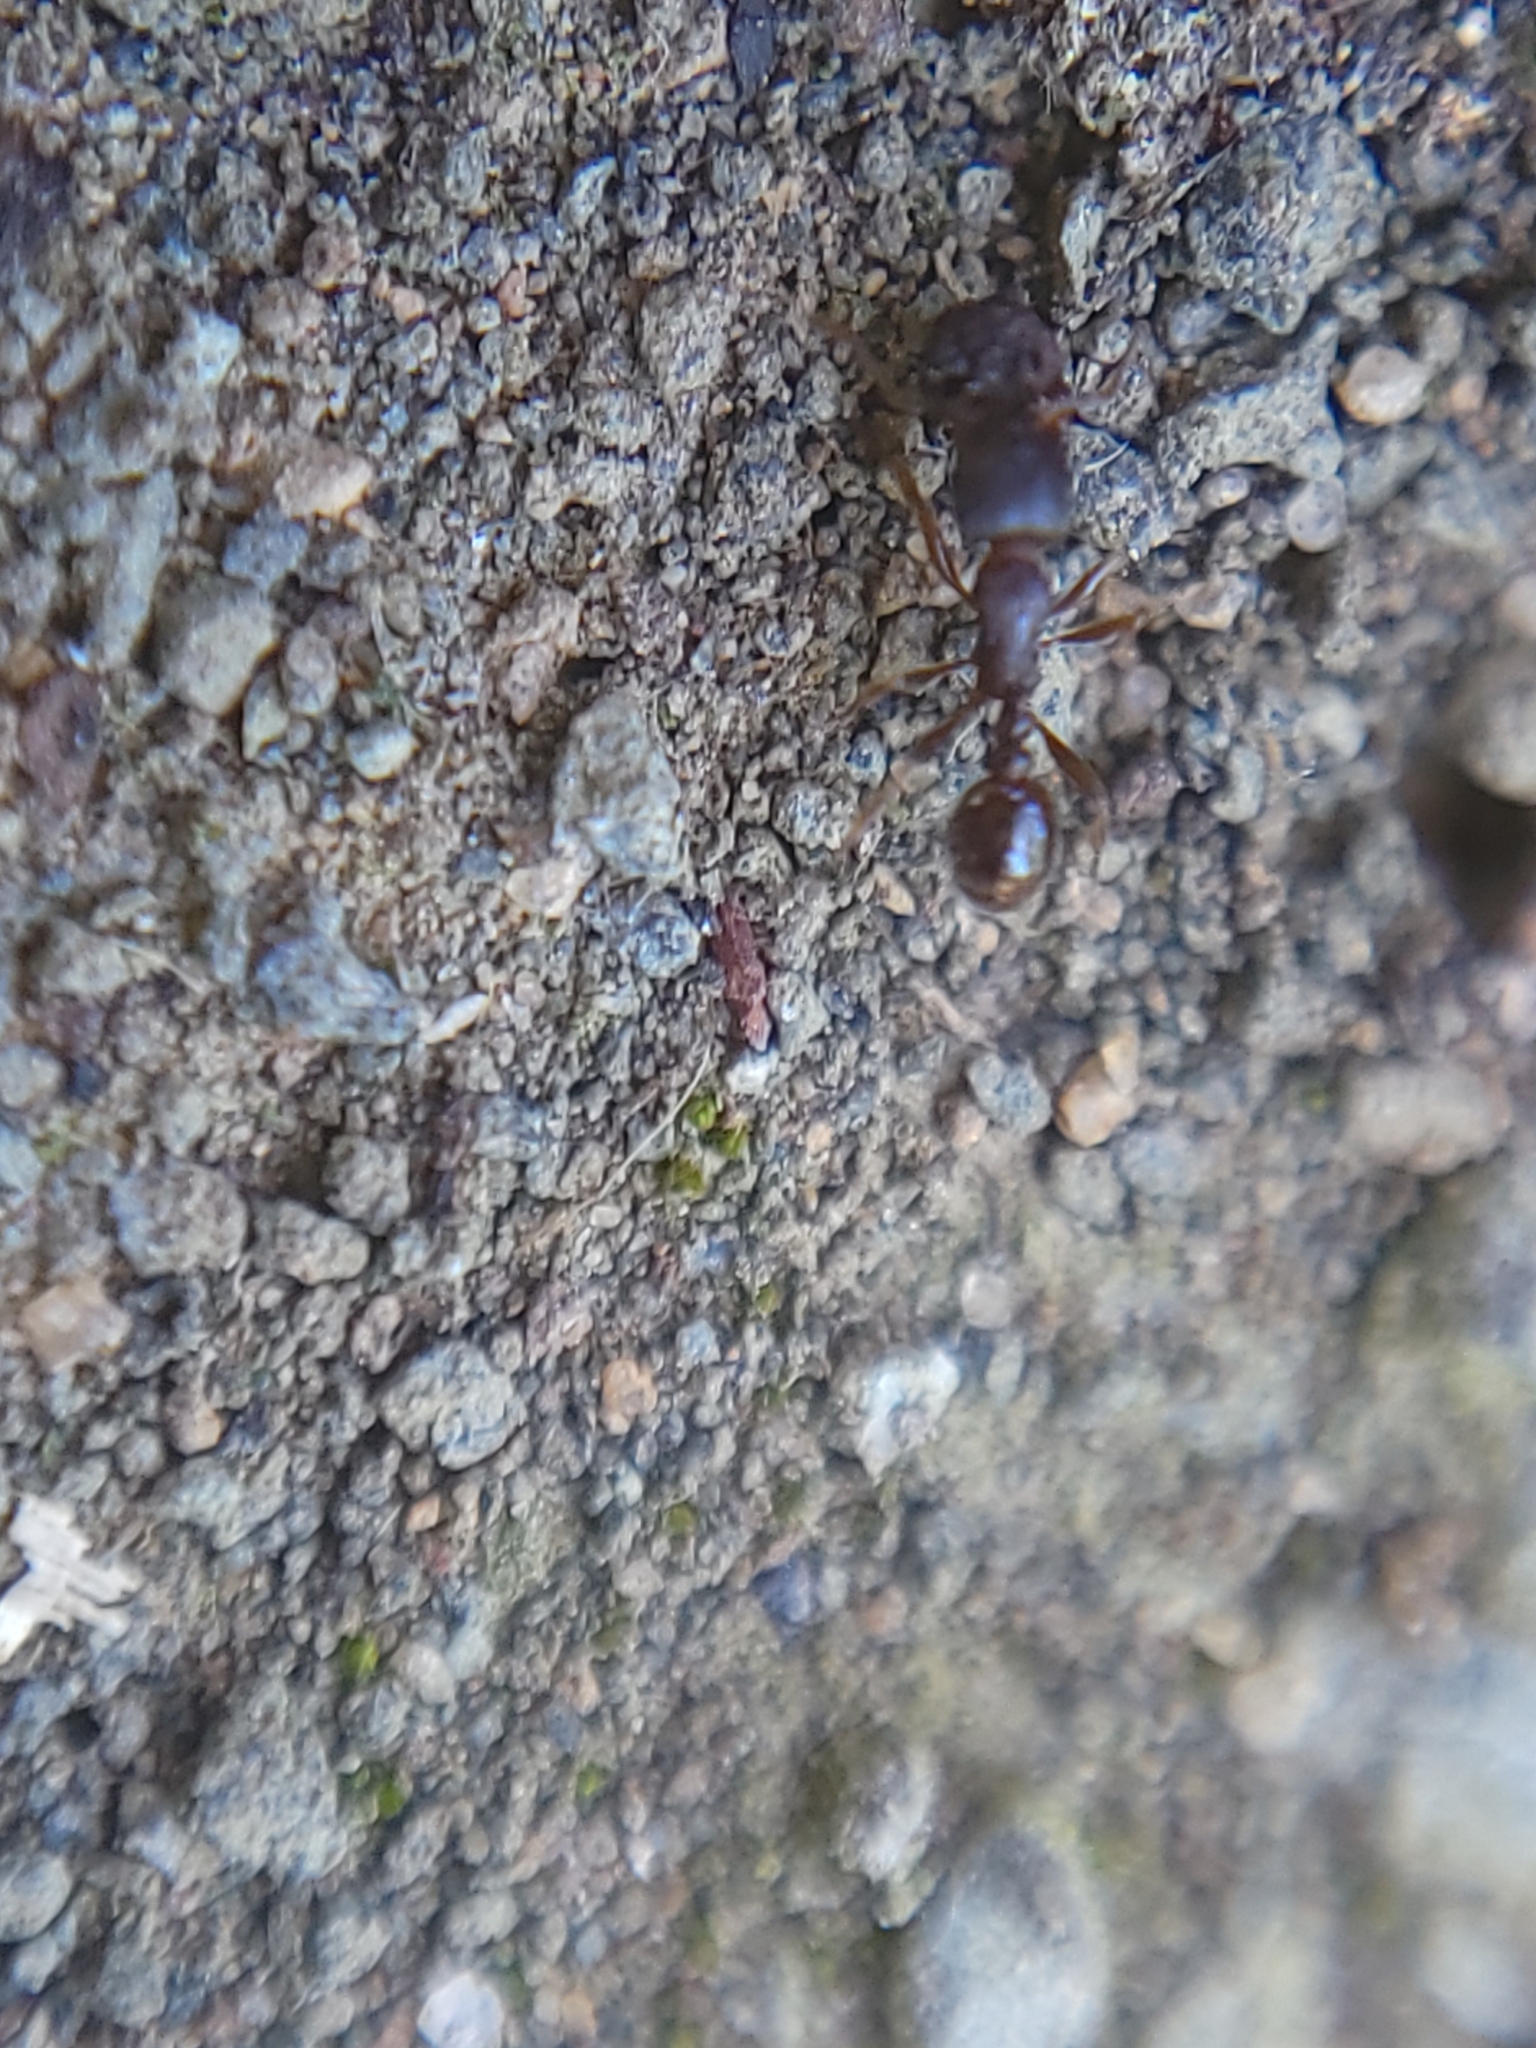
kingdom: Animalia
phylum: Arthropoda
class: Insecta
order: Hymenoptera
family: Formicidae
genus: Tetramorium
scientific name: Tetramorium immigrans
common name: Pavement ant
